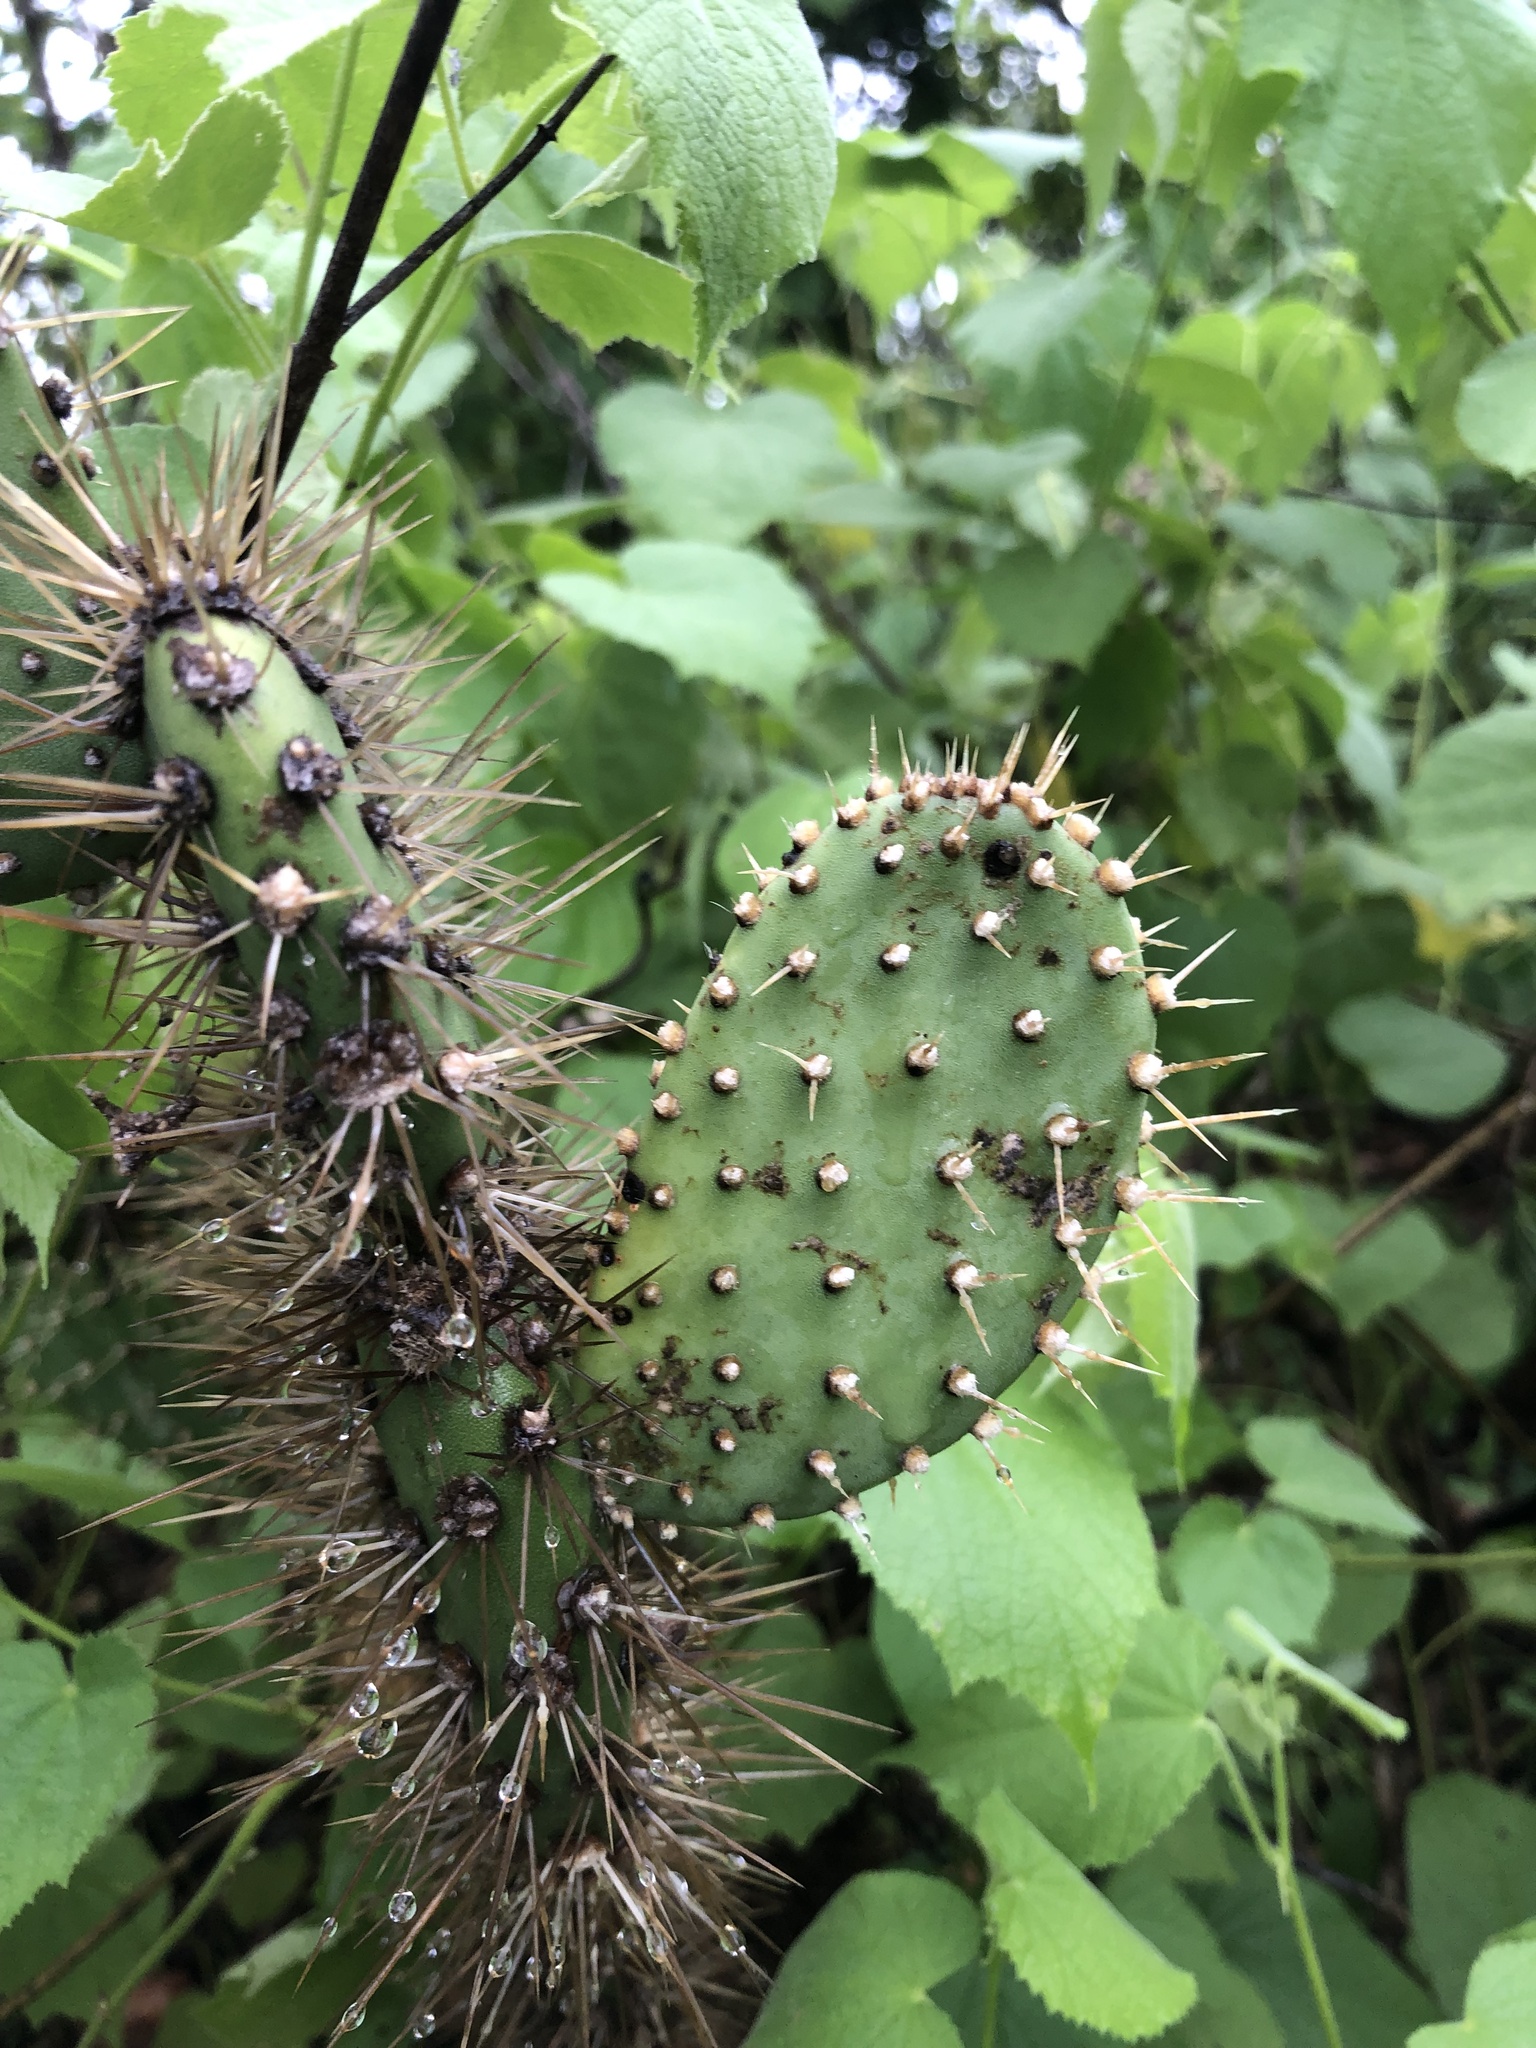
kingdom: Plantae
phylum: Tracheophyta
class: Magnoliopsida
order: Caryophyllales
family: Cactaceae
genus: Tacinga
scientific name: Tacinga palmadora
